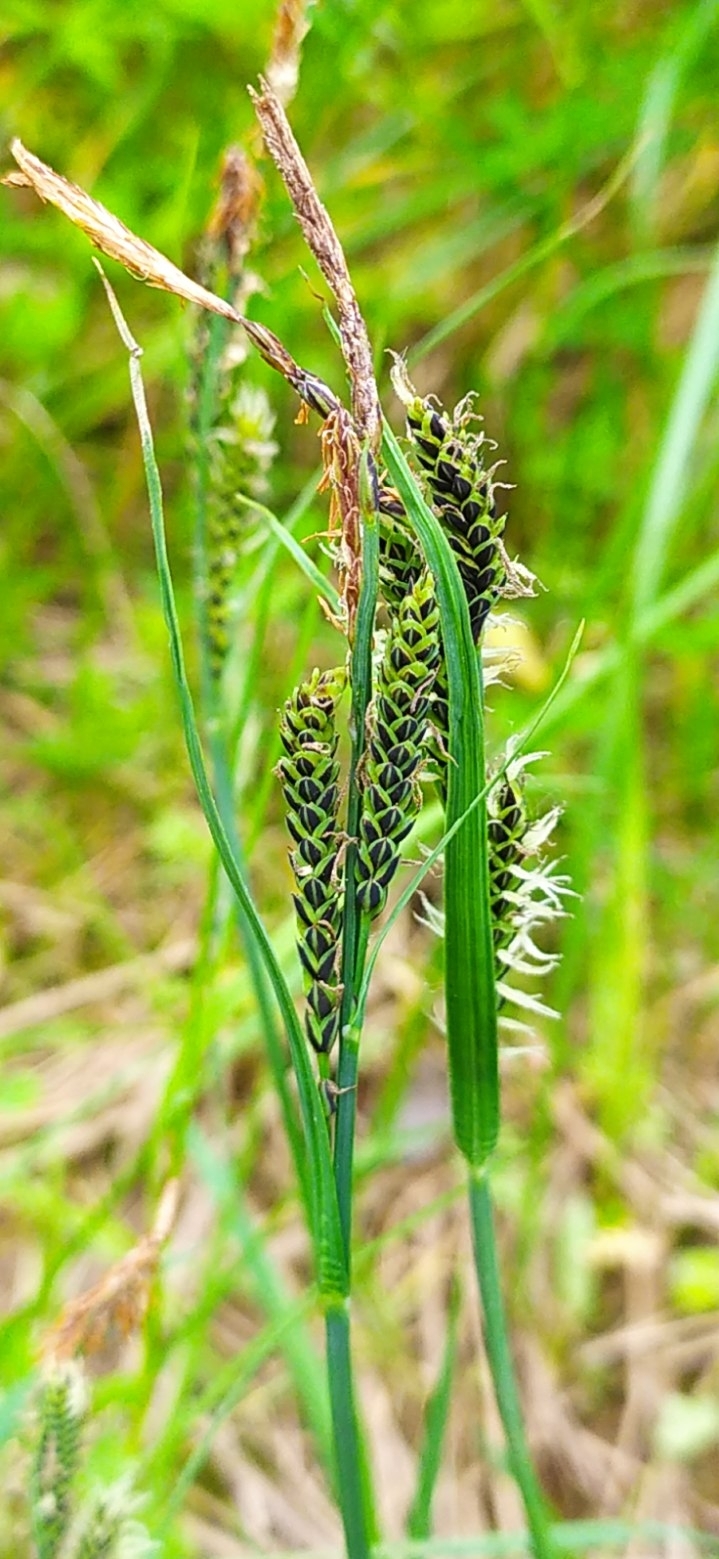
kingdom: Plantae
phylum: Tracheophyta
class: Liliopsida
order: Poales
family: Cyperaceae
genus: Carex
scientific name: Carex nigra
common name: Common sedge
